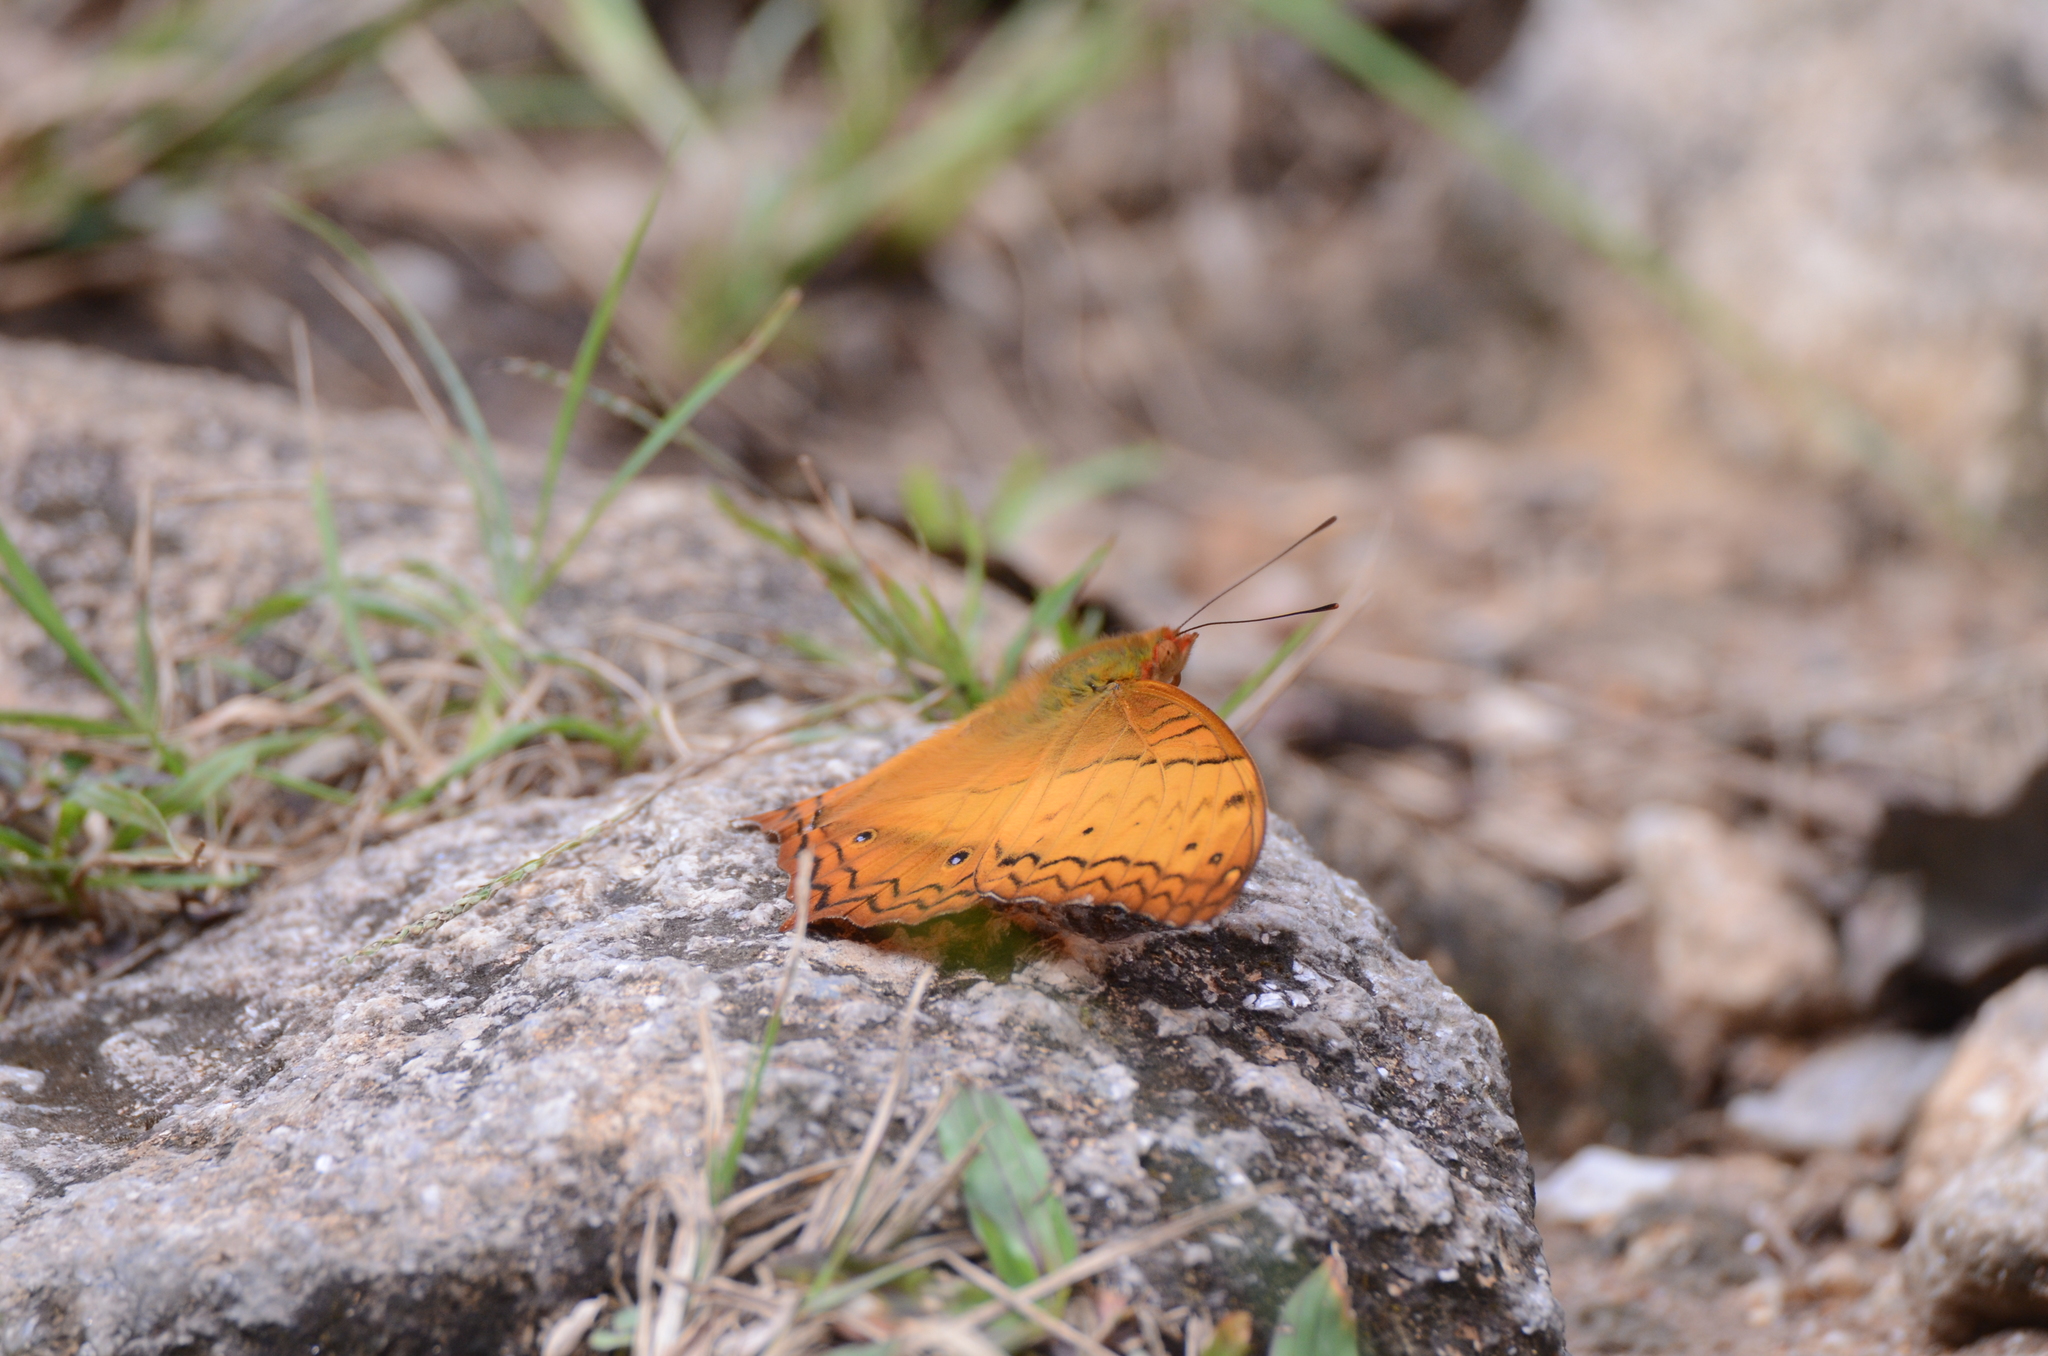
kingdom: Animalia
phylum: Arthropoda
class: Insecta
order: Lepidoptera
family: Nymphalidae
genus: Vindula
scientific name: Vindula erota
